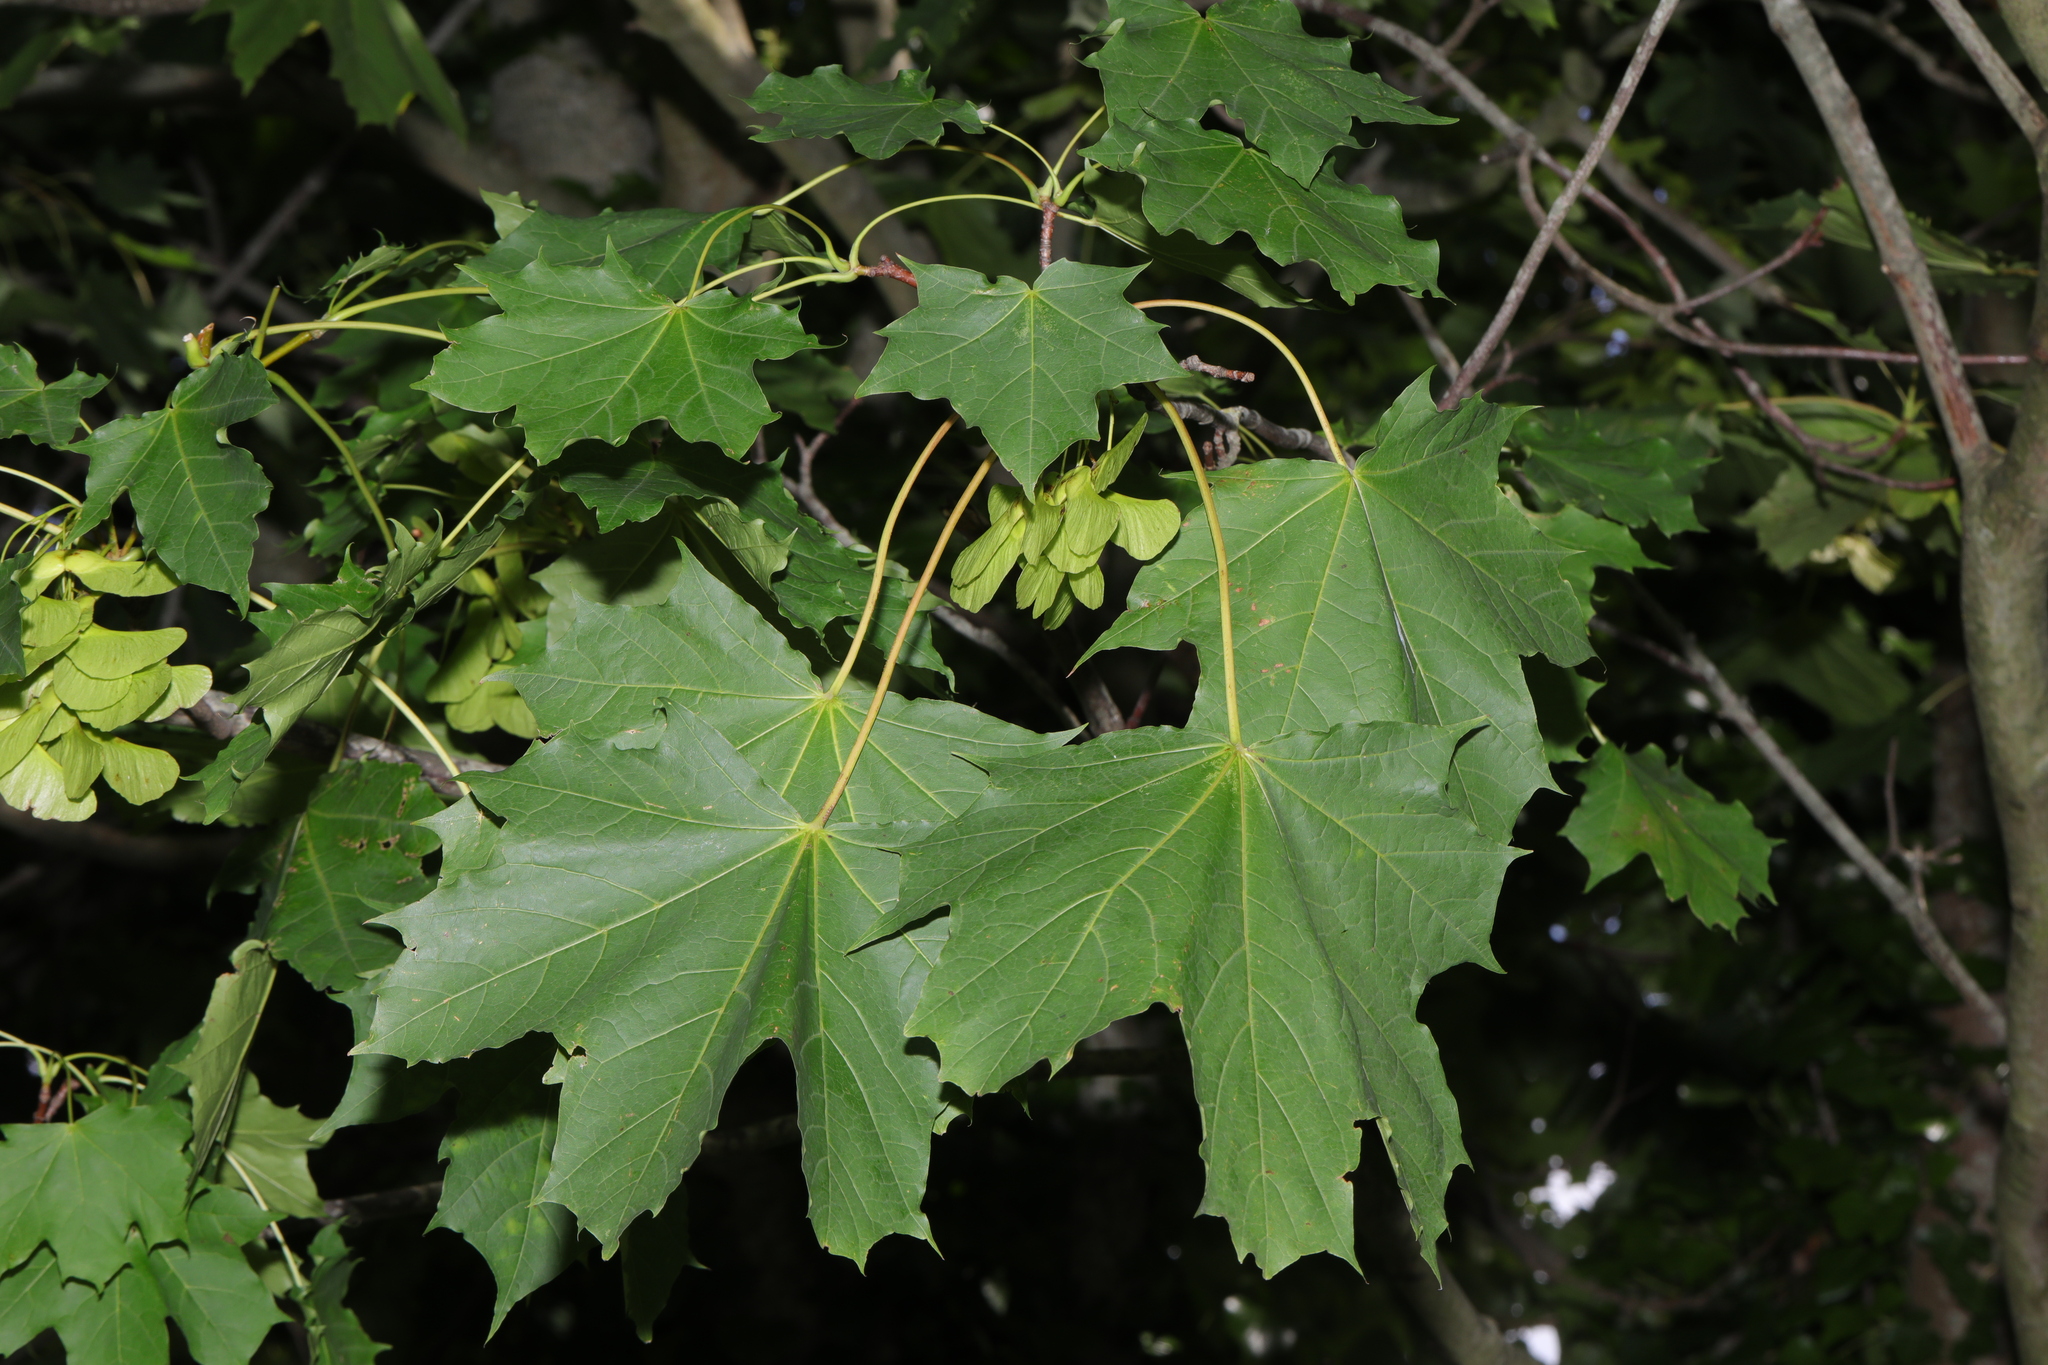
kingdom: Plantae
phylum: Tracheophyta
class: Magnoliopsida
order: Sapindales
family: Sapindaceae
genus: Acer
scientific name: Acer platanoides
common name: Norway maple
